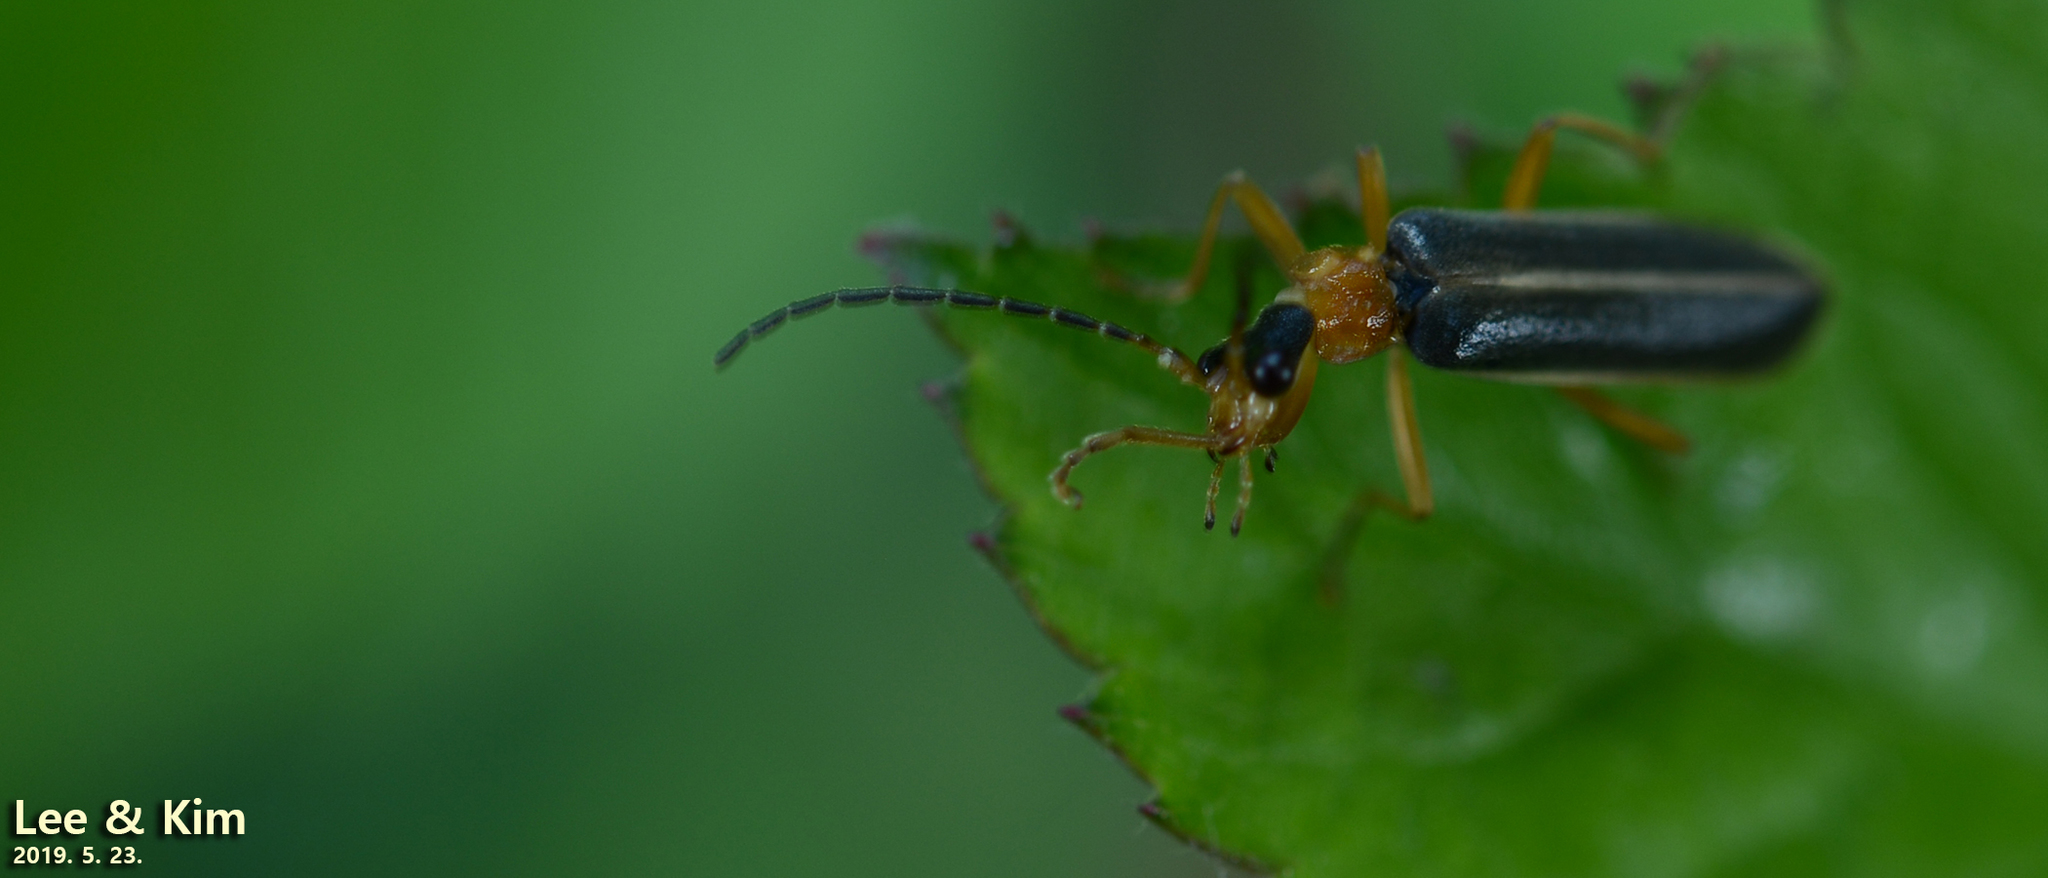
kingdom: Animalia
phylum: Arthropoda
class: Insecta
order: Coleoptera
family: Cantharidae
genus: Hatchiana
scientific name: Hatchiana glochidiatus
